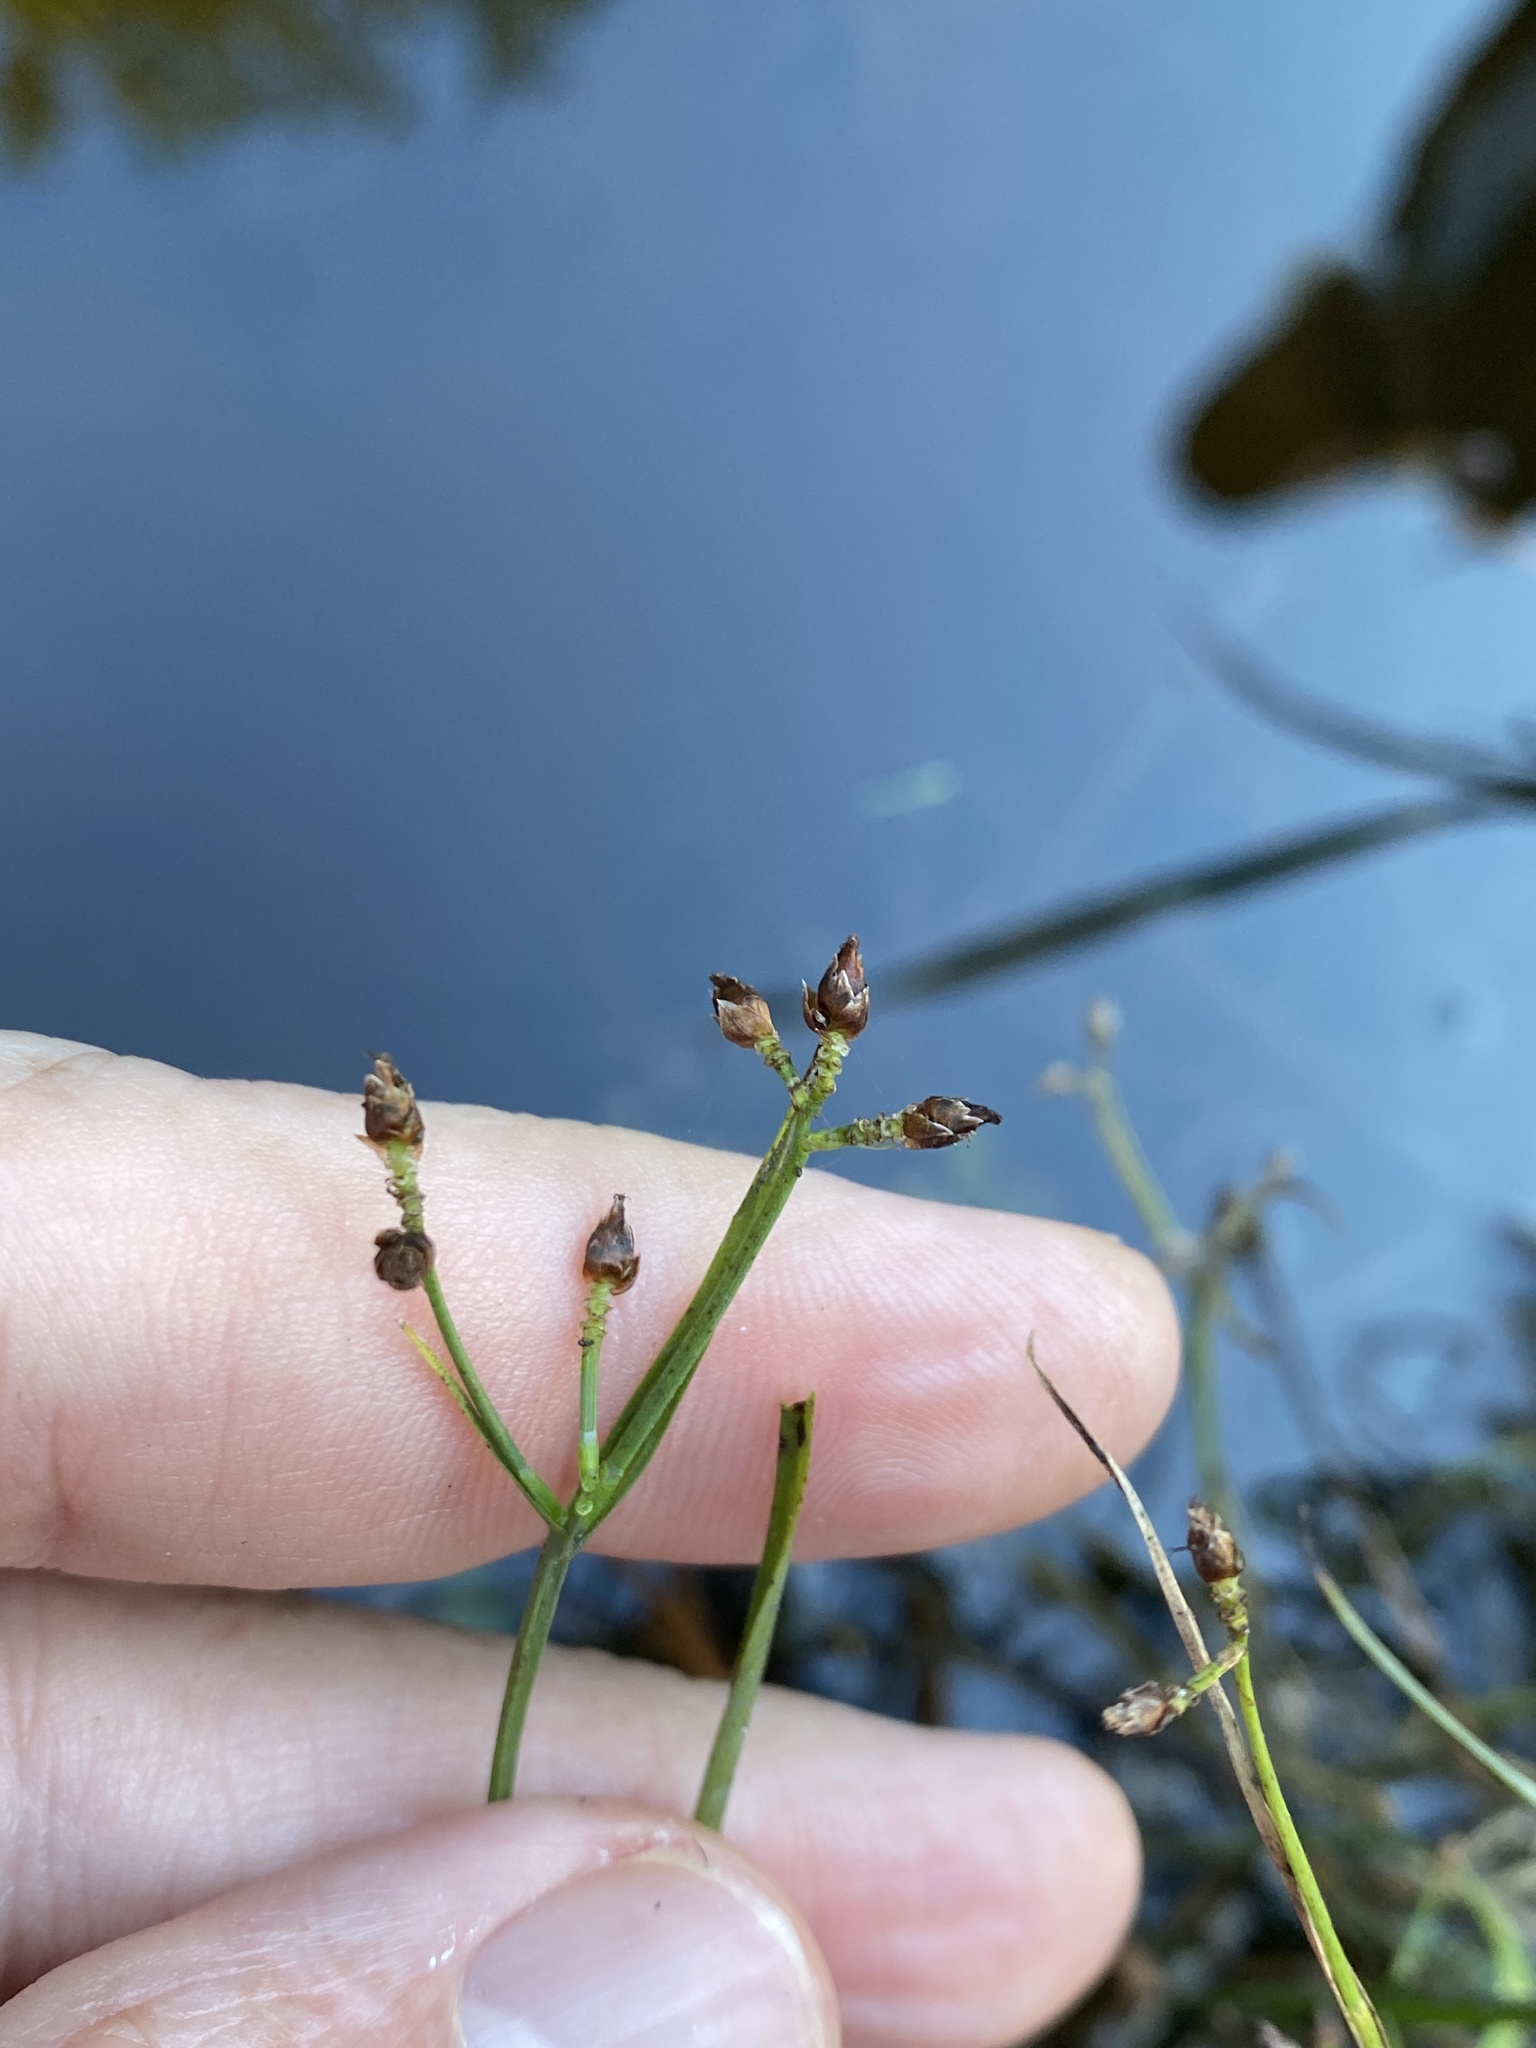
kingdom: Plantae
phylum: Tracheophyta
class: Liliopsida
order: Poales
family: Cyperaceae
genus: Rhynchospora
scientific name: Rhynchospora nitens
